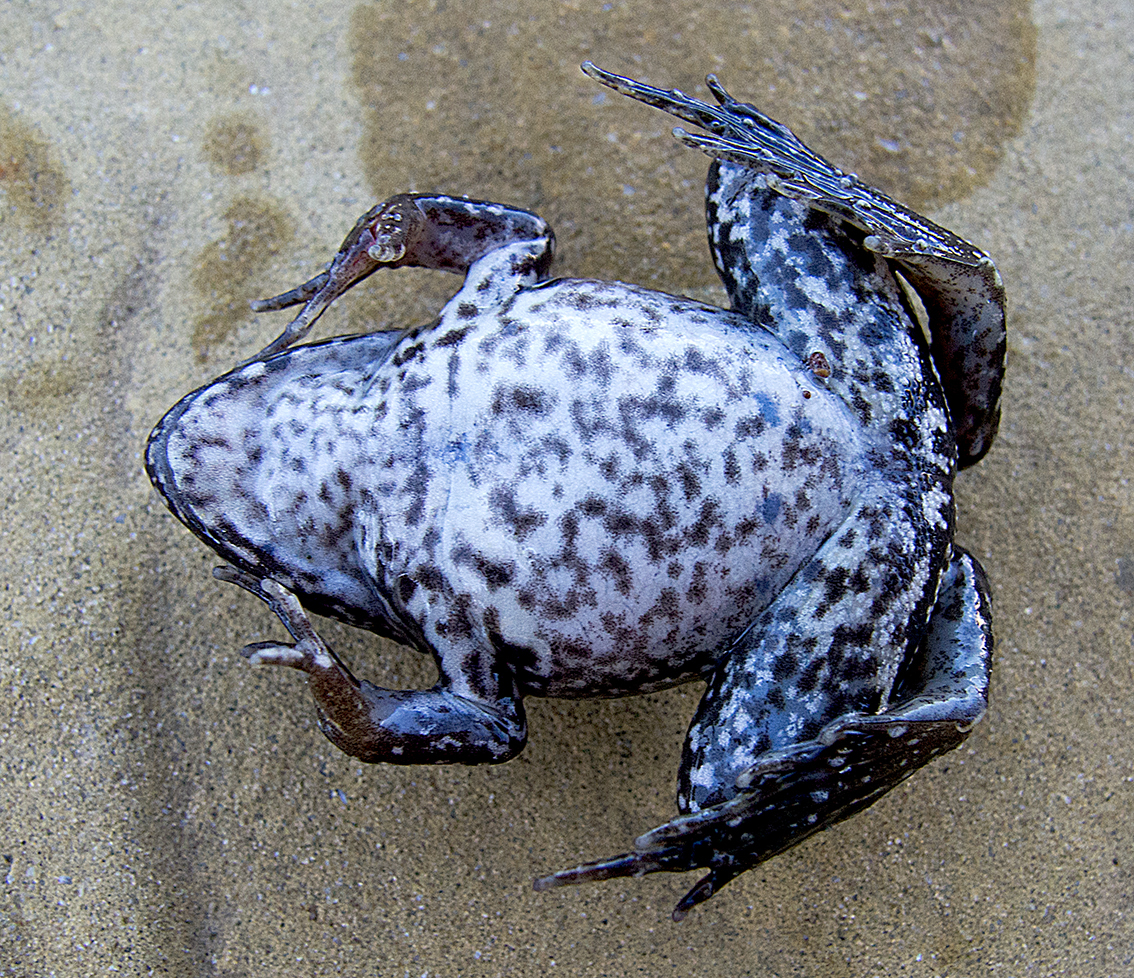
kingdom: Animalia
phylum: Chordata
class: Amphibia
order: Anura
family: Ranidae
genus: Pelophylax
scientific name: Pelophylax
